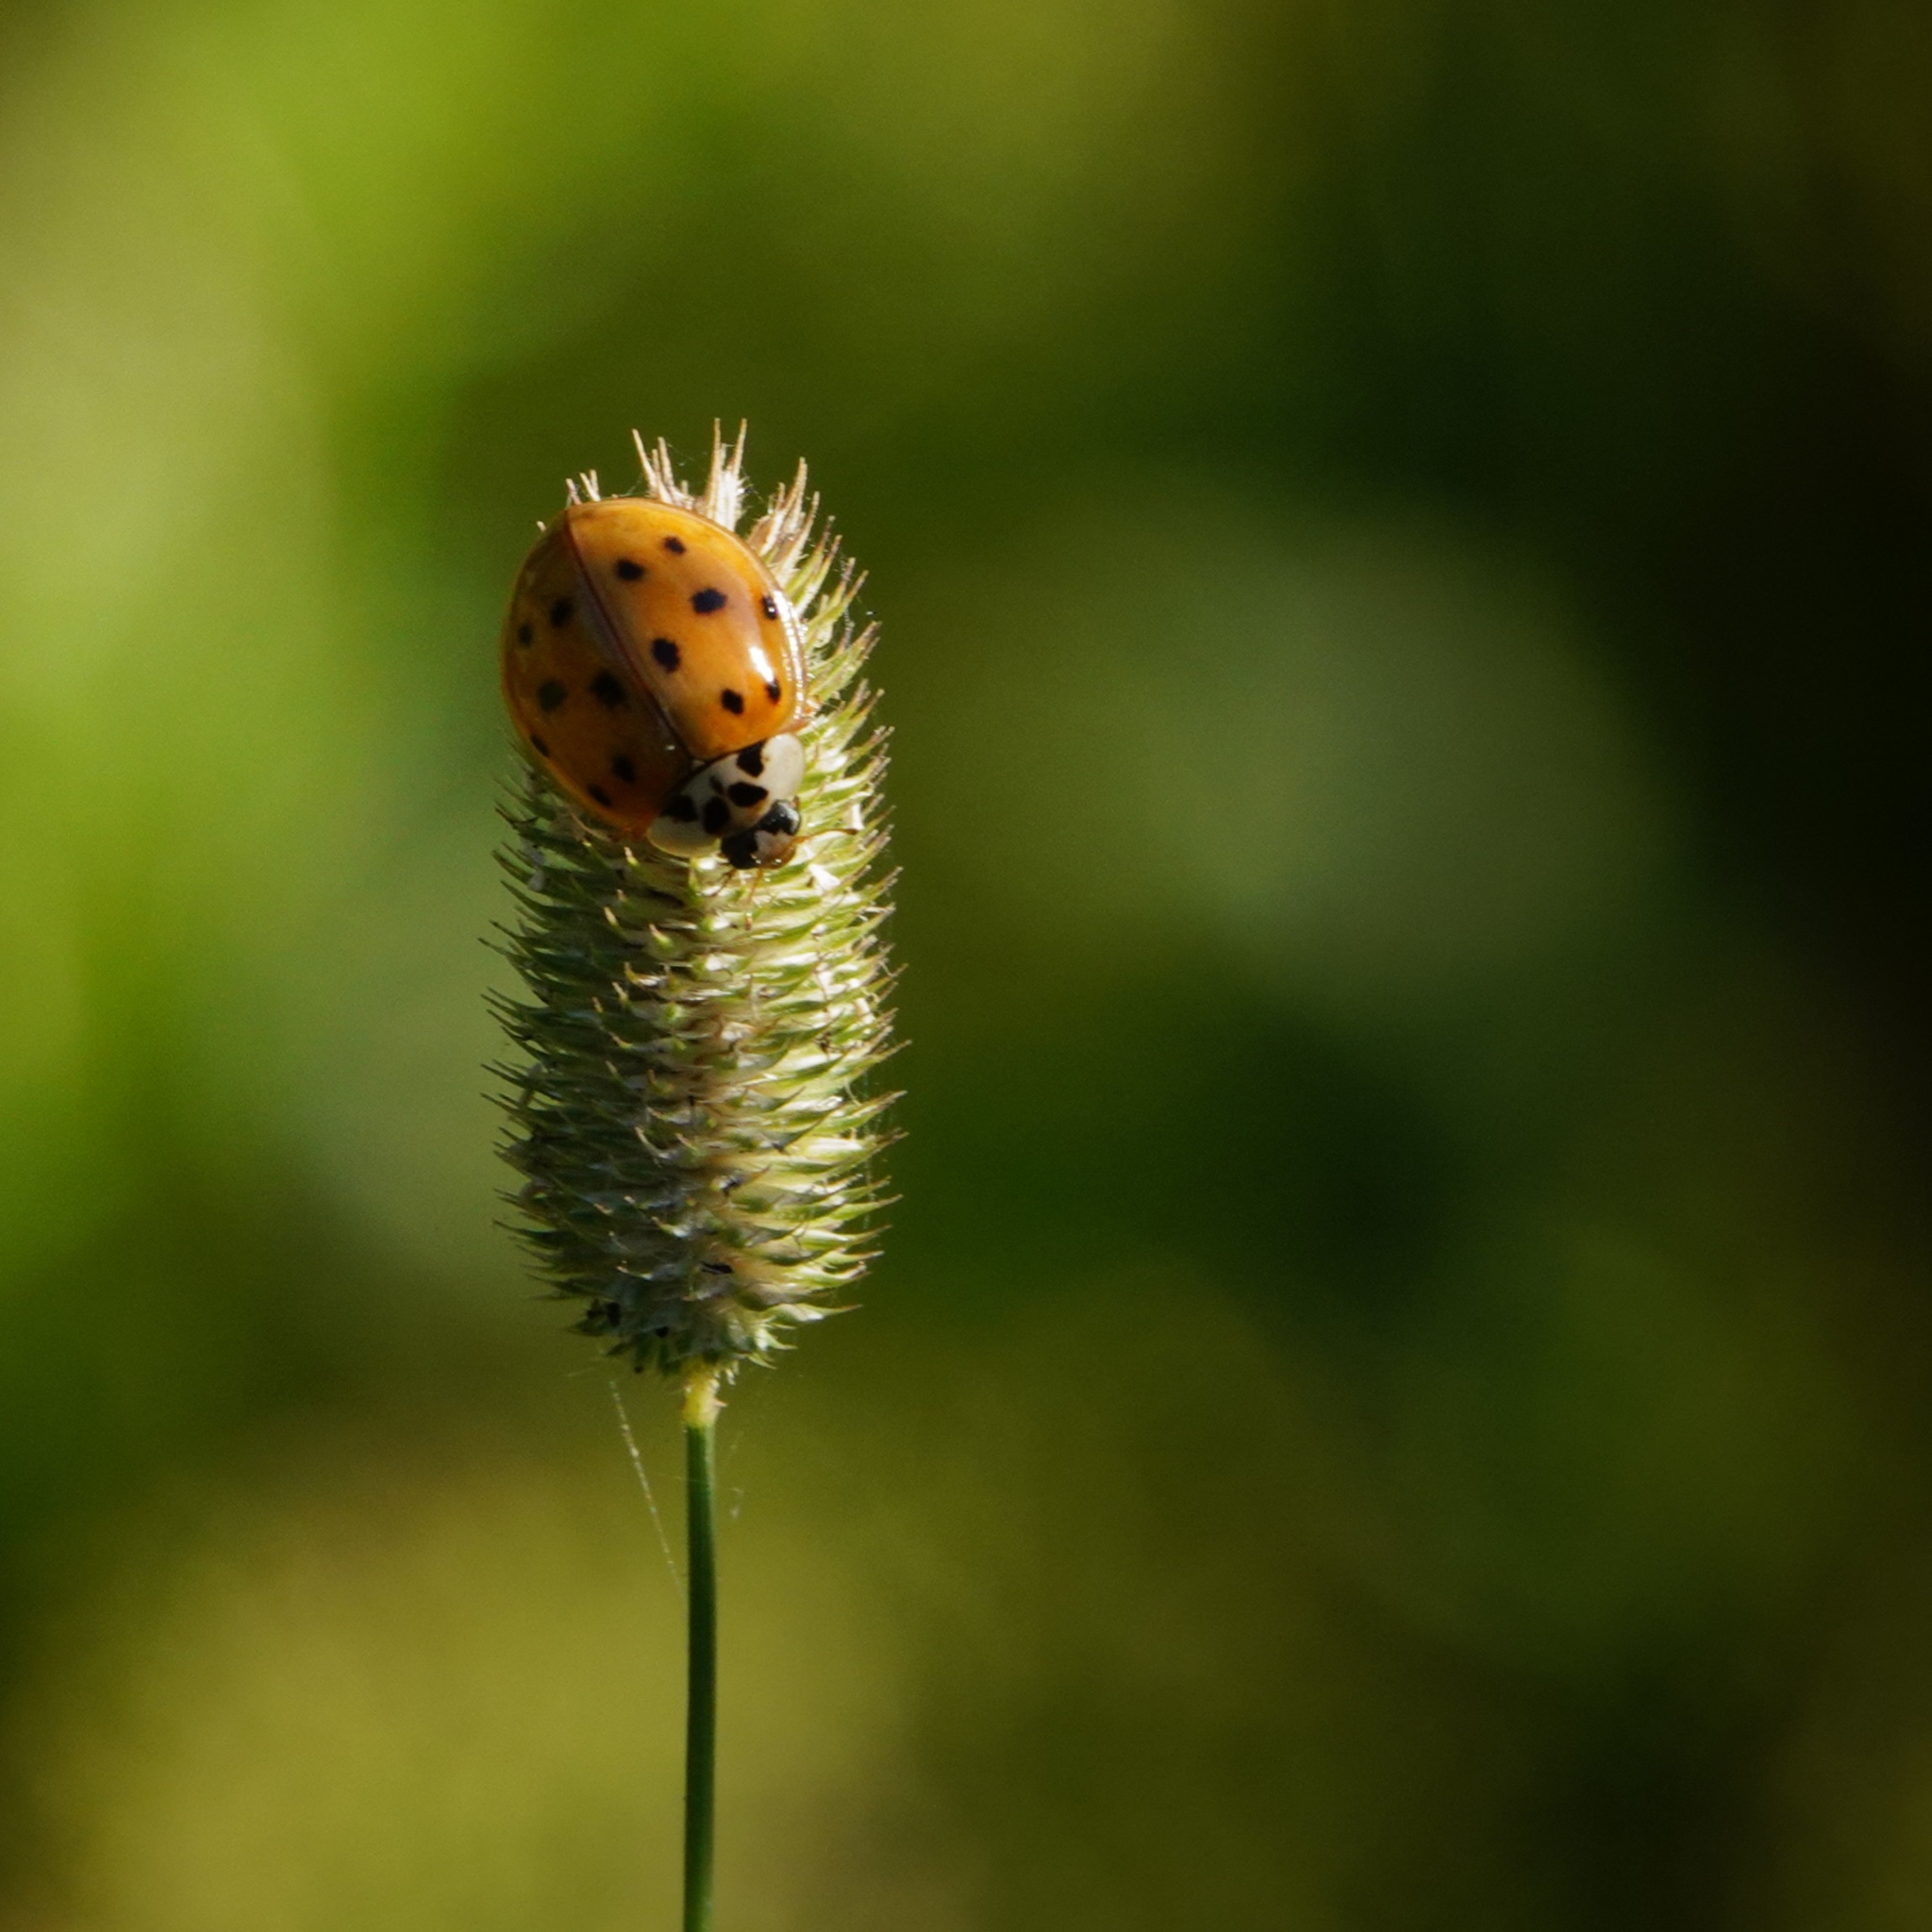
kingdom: Animalia
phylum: Arthropoda
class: Insecta
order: Coleoptera
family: Coccinellidae
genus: Harmonia
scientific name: Harmonia axyridis
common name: Harlequin ladybird
